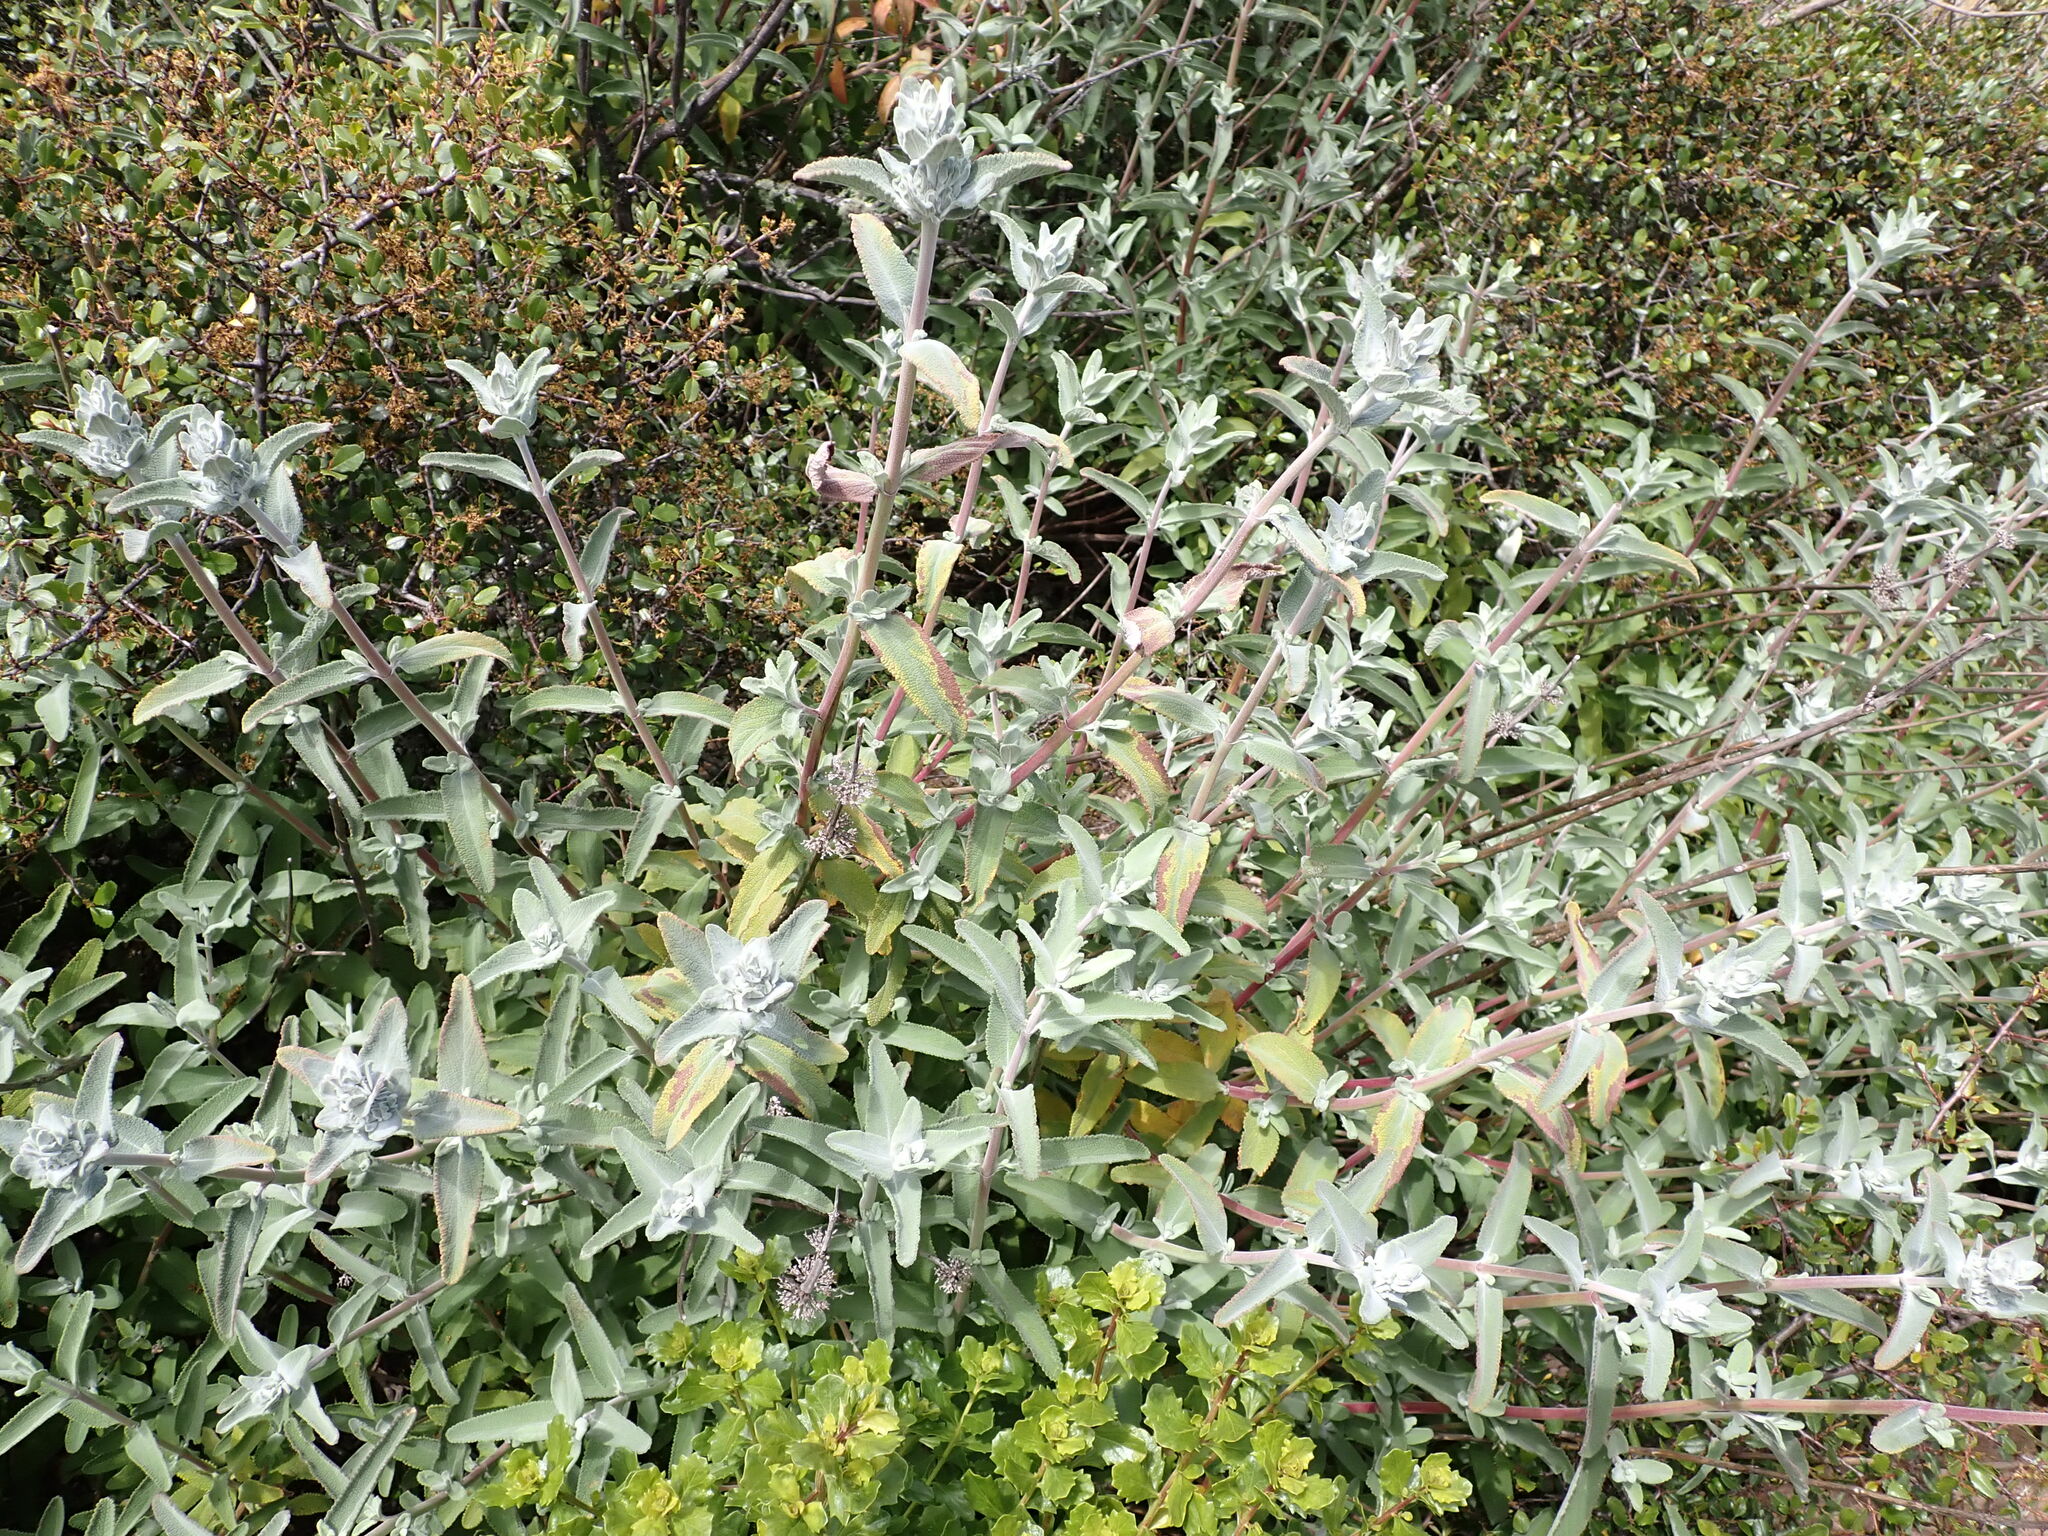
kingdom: Plantae
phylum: Tracheophyta
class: Magnoliopsida
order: Lamiales
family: Lamiaceae
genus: Salvia
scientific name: Salvia leucophylla
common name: Purple sage
